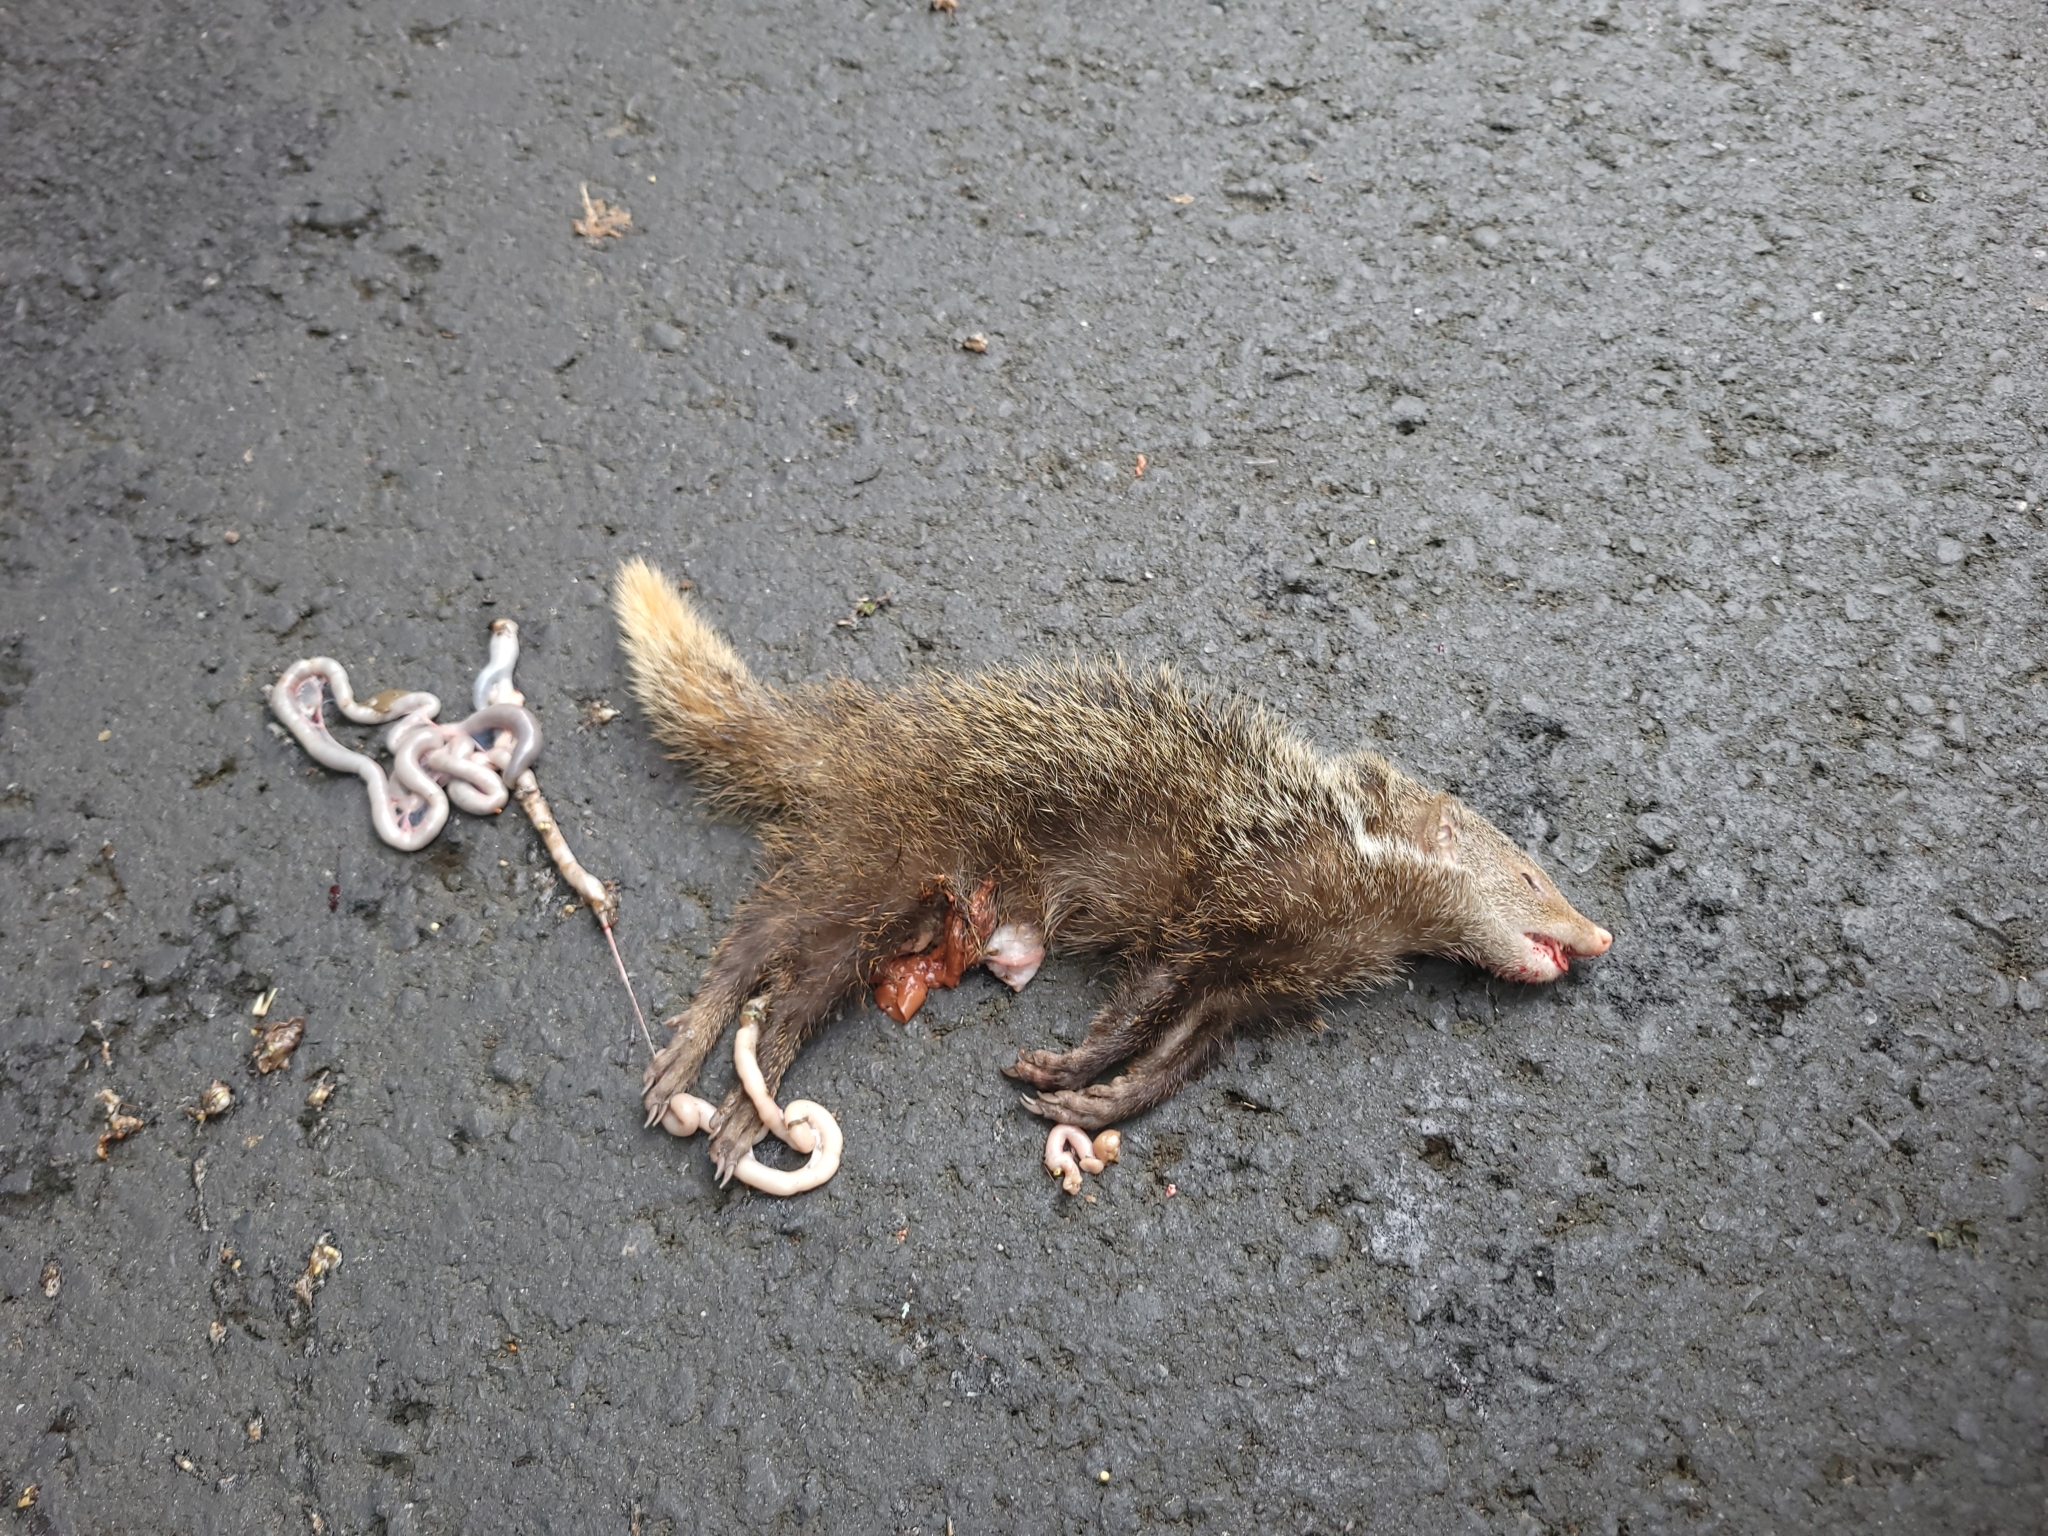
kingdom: Animalia
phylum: Chordata
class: Mammalia
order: Carnivora
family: Herpestidae
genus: Herpestes
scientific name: Herpestes urva
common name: Crab-eating mongoose
